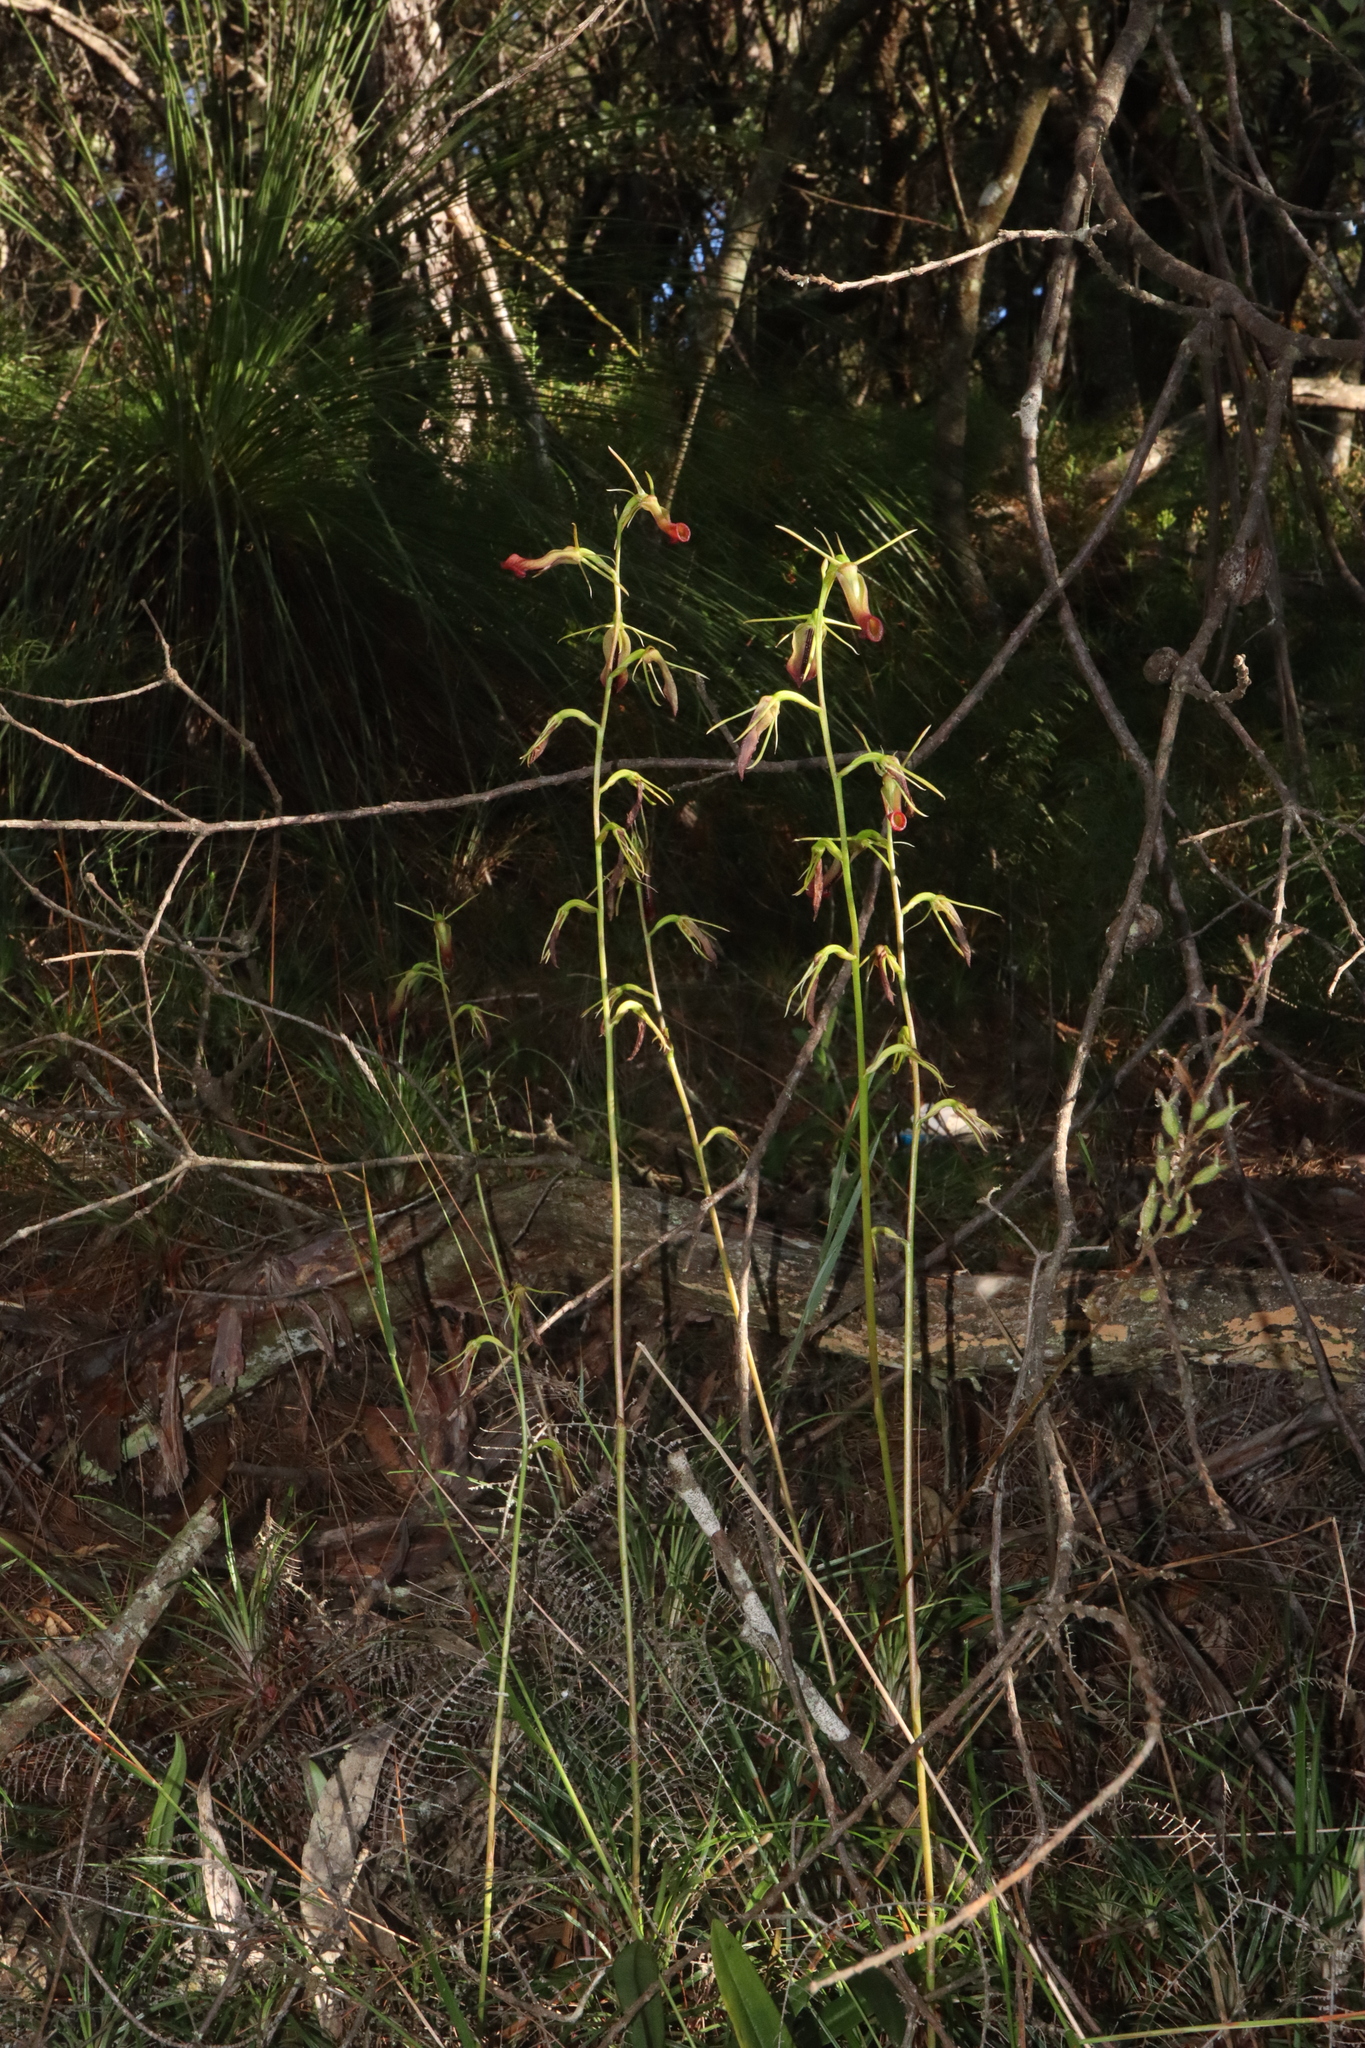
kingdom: Plantae
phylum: Tracheophyta
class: Liliopsida
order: Asparagales
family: Orchidaceae
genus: Cryptostylis
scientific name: Cryptostylis subulata
